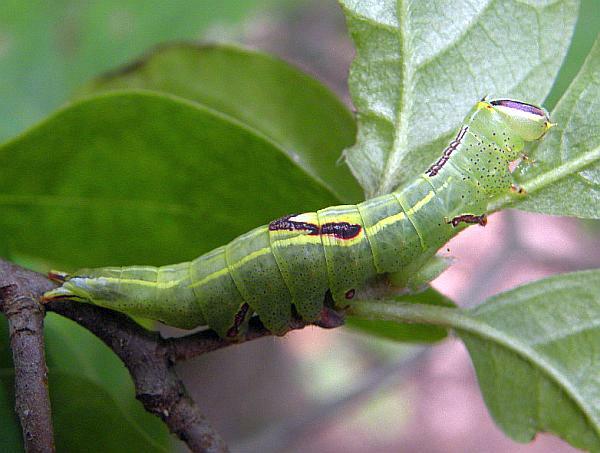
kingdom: Animalia
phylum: Arthropoda
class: Insecta
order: Lepidoptera
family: Notodontidae
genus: Disphragis
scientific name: Disphragis Cecrita guttivitta
